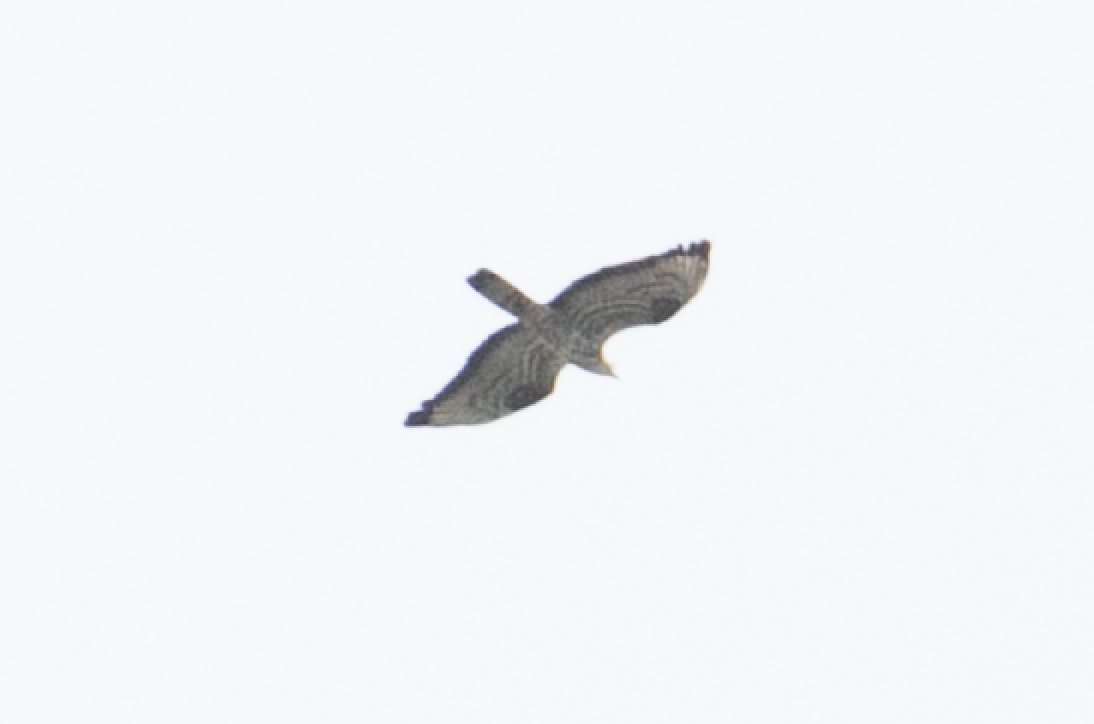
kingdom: Animalia
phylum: Chordata
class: Aves
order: Accipitriformes
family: Accipitridae
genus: Pernis
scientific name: Pernis apivorus
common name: European honey buzzard
